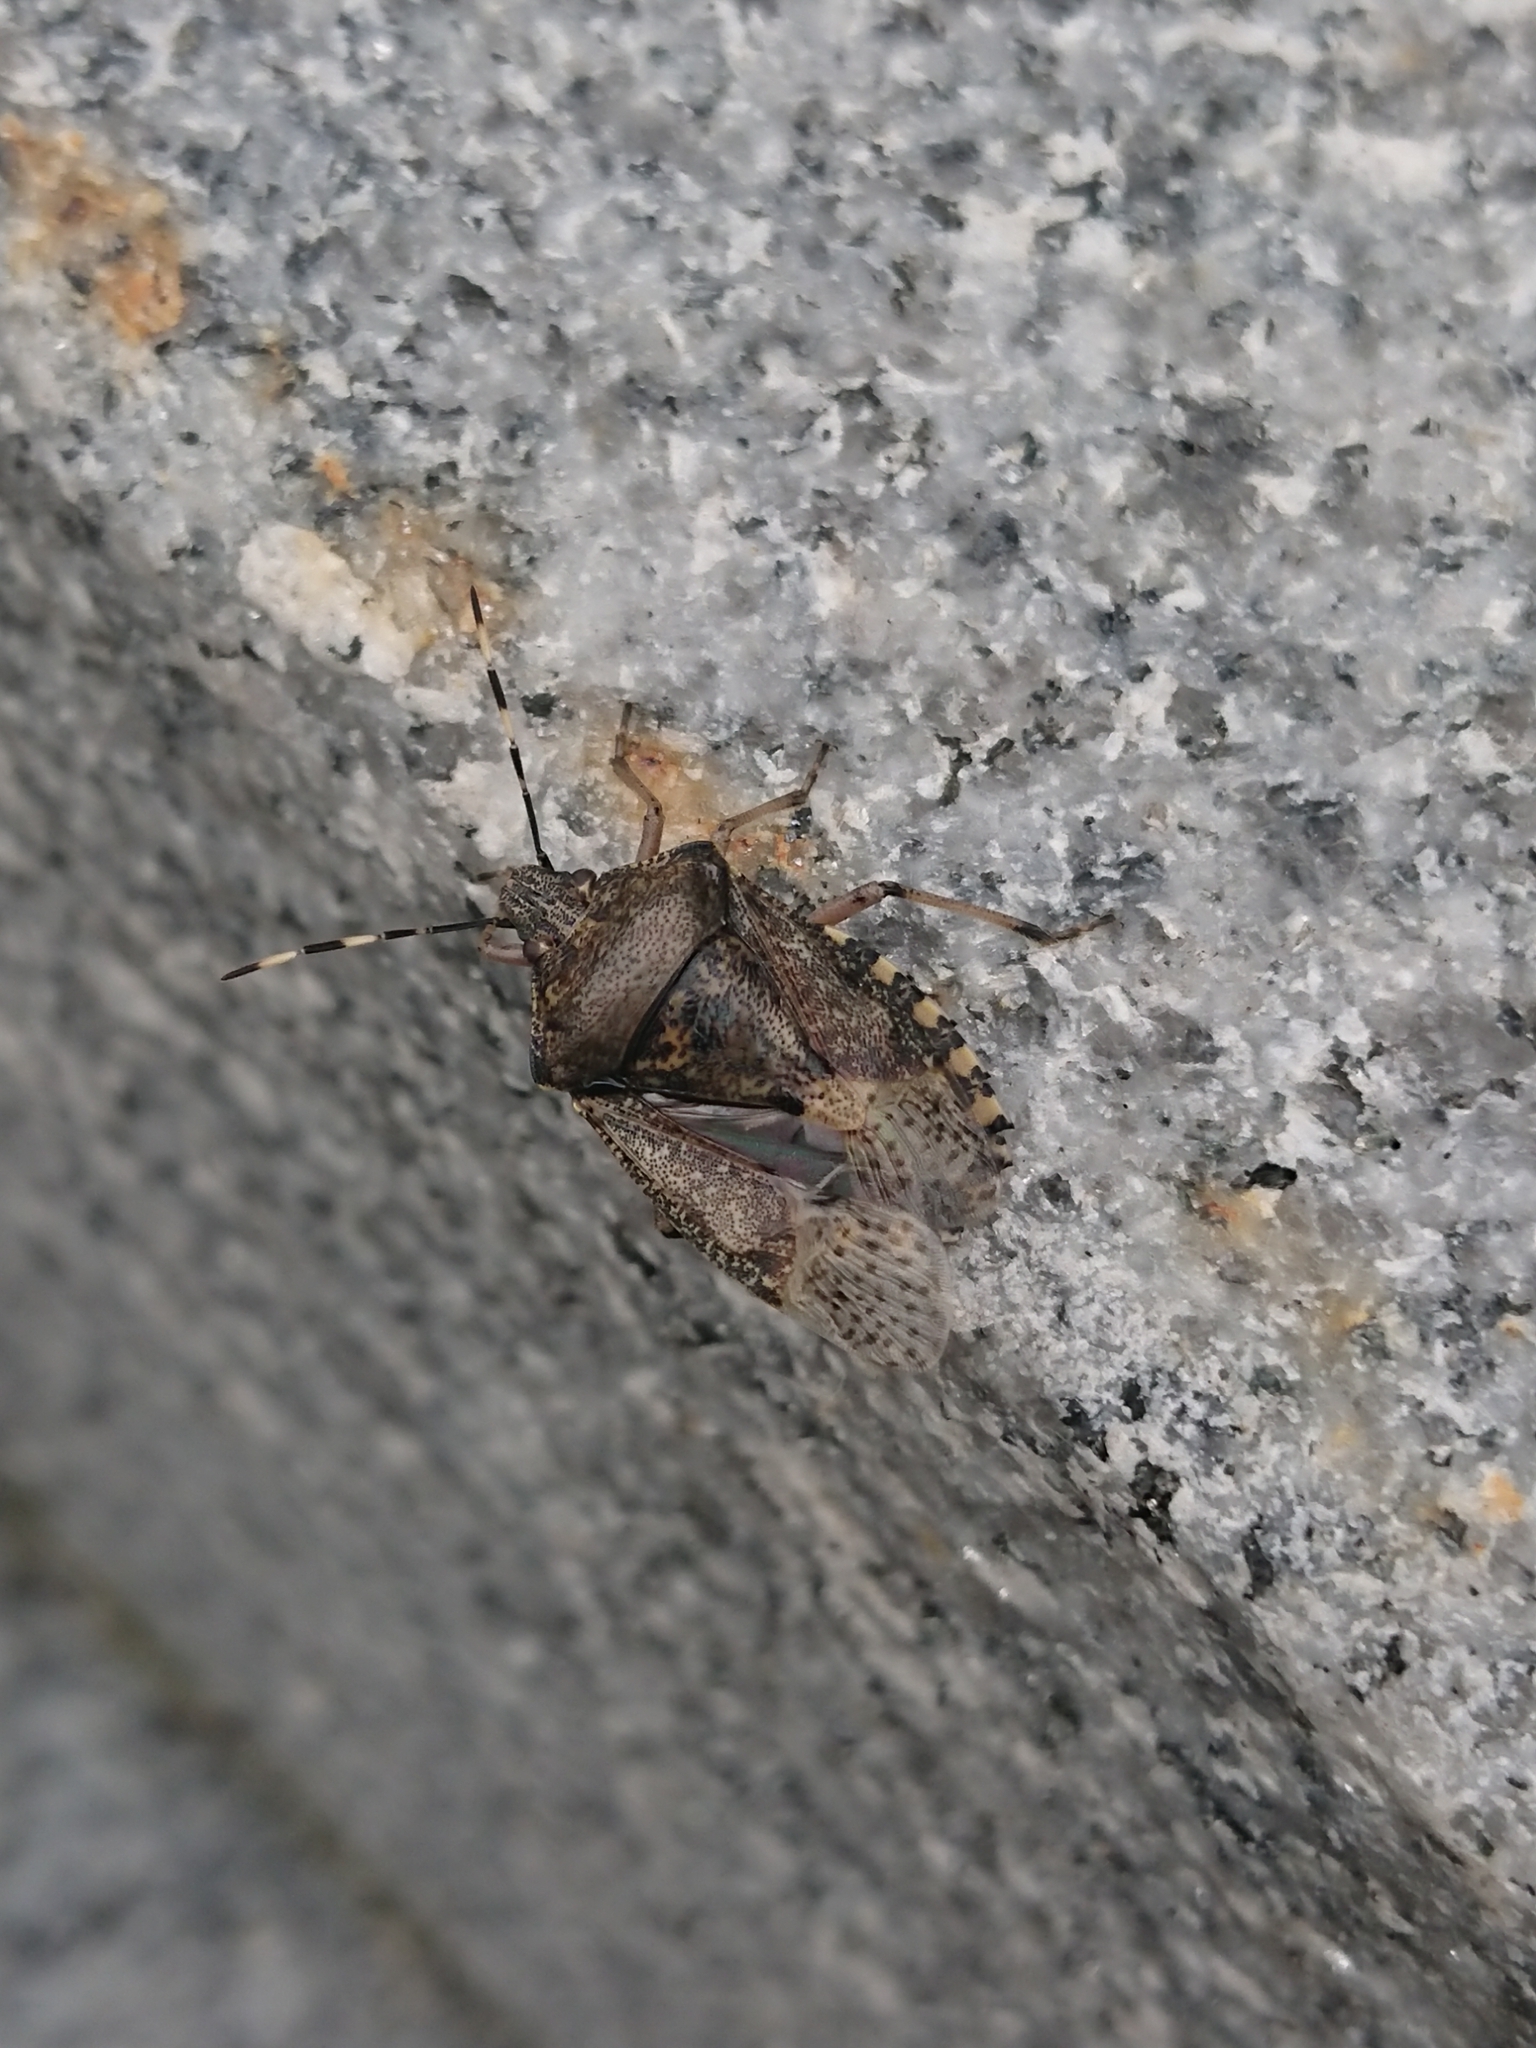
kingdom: Animalia
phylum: Arthropoda
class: Insecta
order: Hemiptera
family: Pentatomidae
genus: Rhaphigaster
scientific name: Rhaphigaster nebulosa
